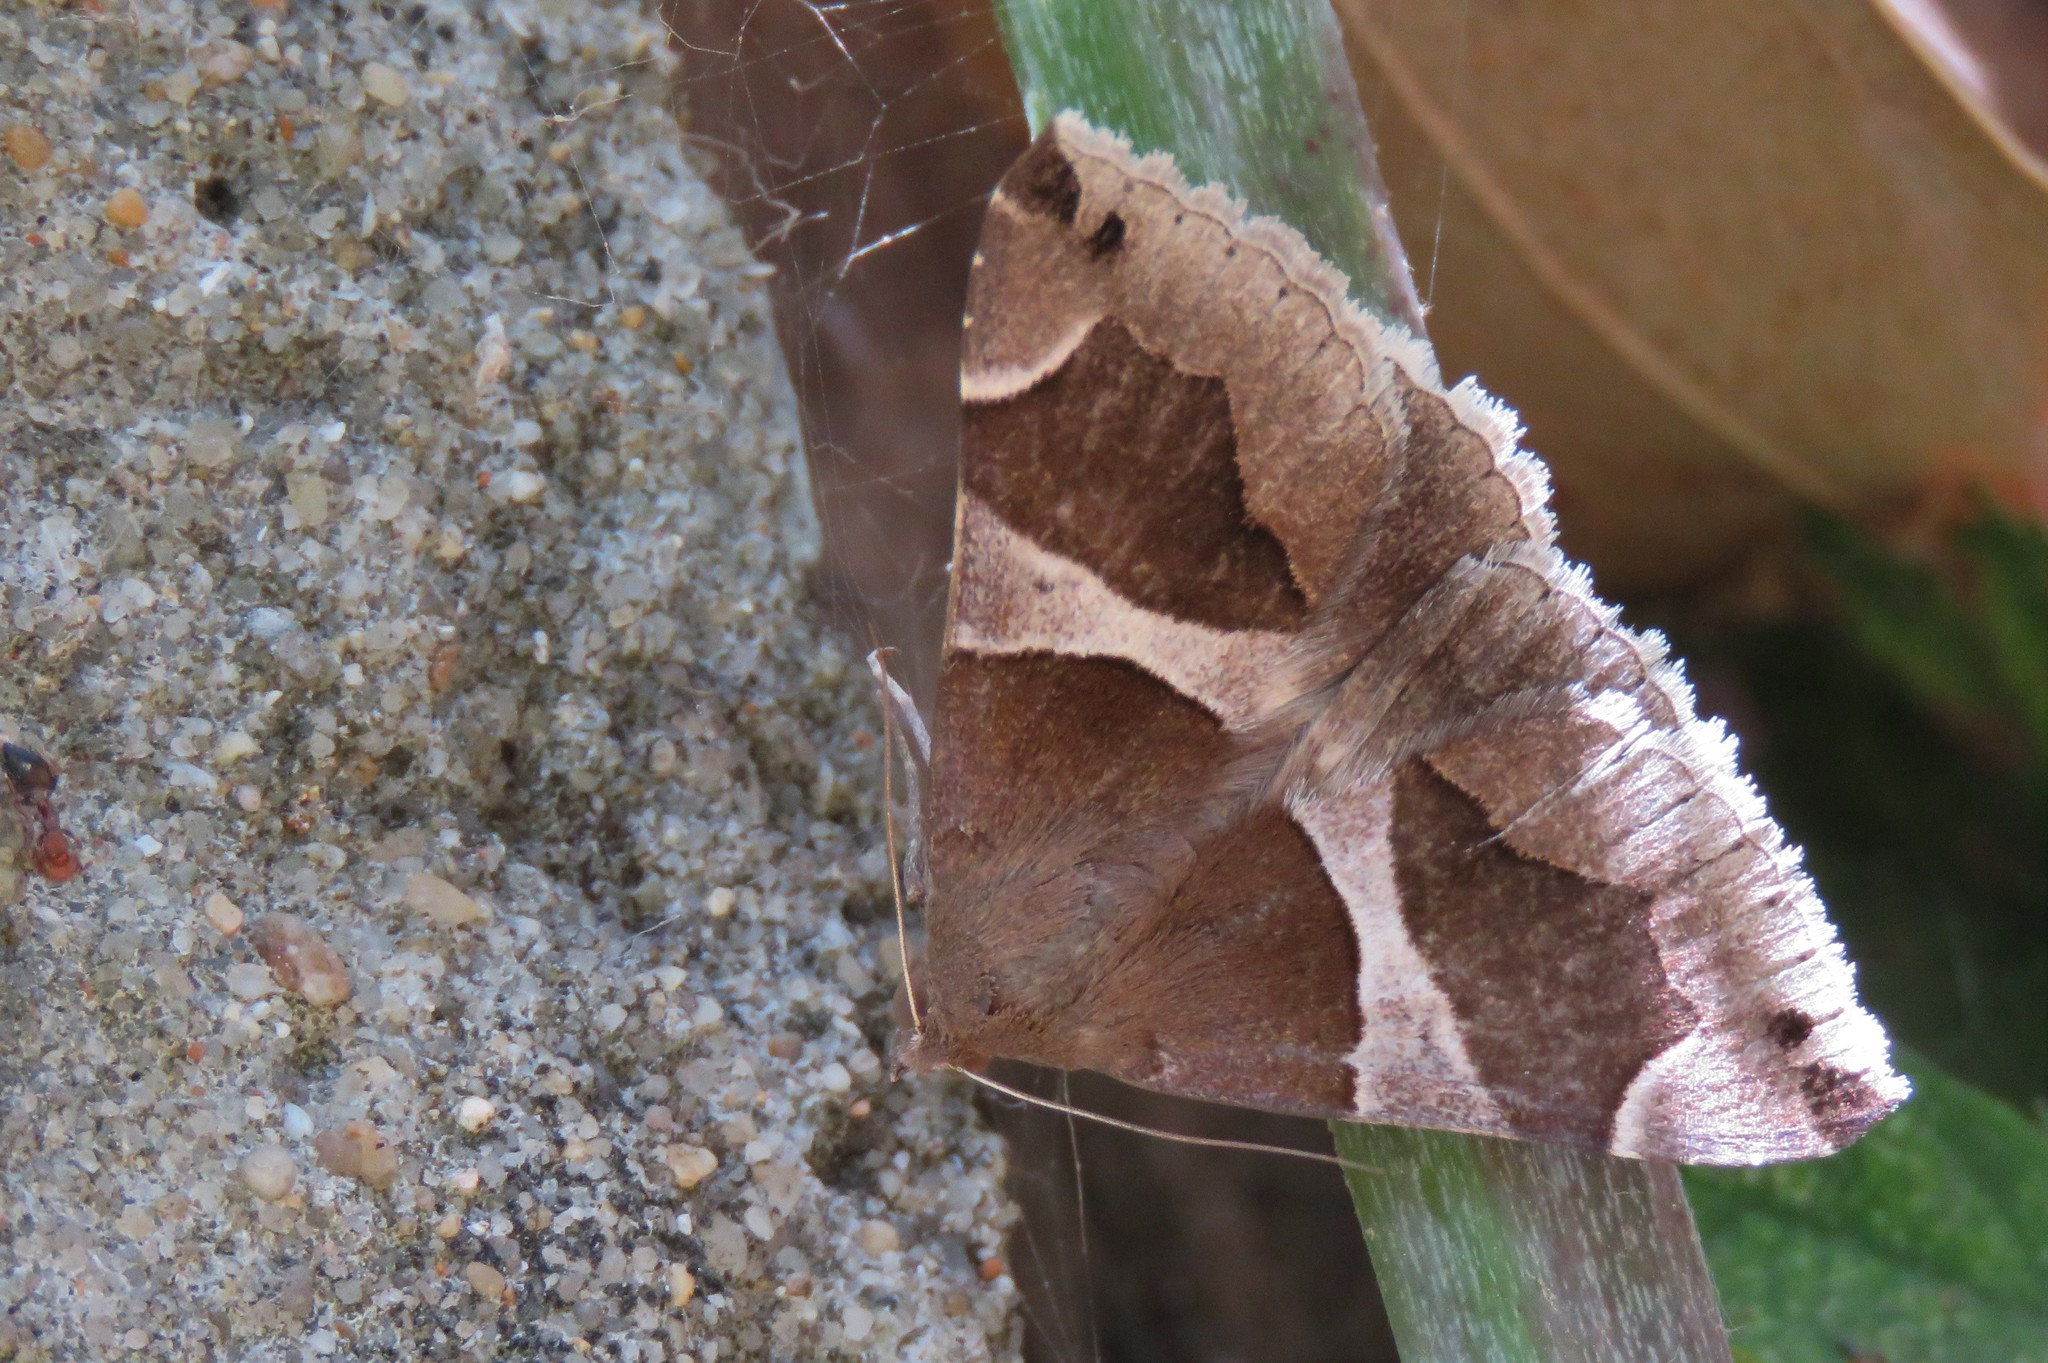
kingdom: Animalia
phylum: Arthropoda
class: Insecta
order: Lepidoptera
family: Erebidae
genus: Dysgonia
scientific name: Dysgonia algira
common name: Passenger
